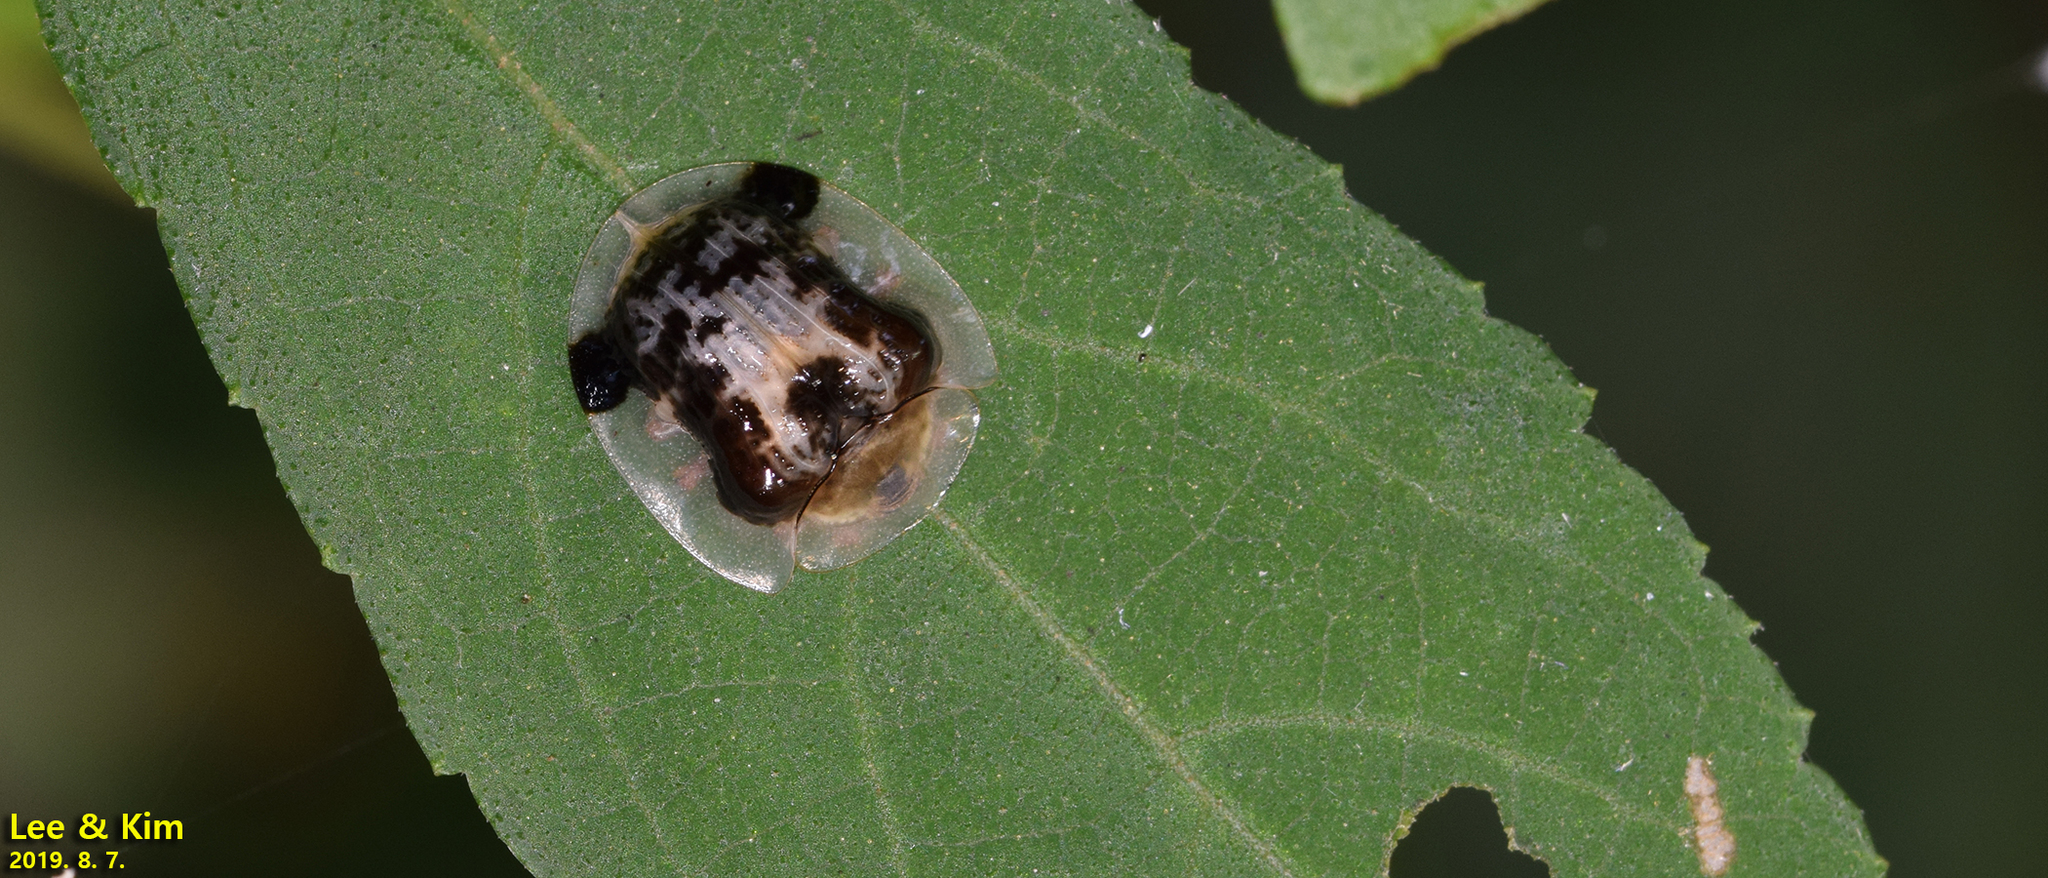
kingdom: Animalia
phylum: Arthropoda
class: Insecta
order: Coleoptera
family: Chrysomelidae
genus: Thlaspida
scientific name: Thlaspida biramosa
